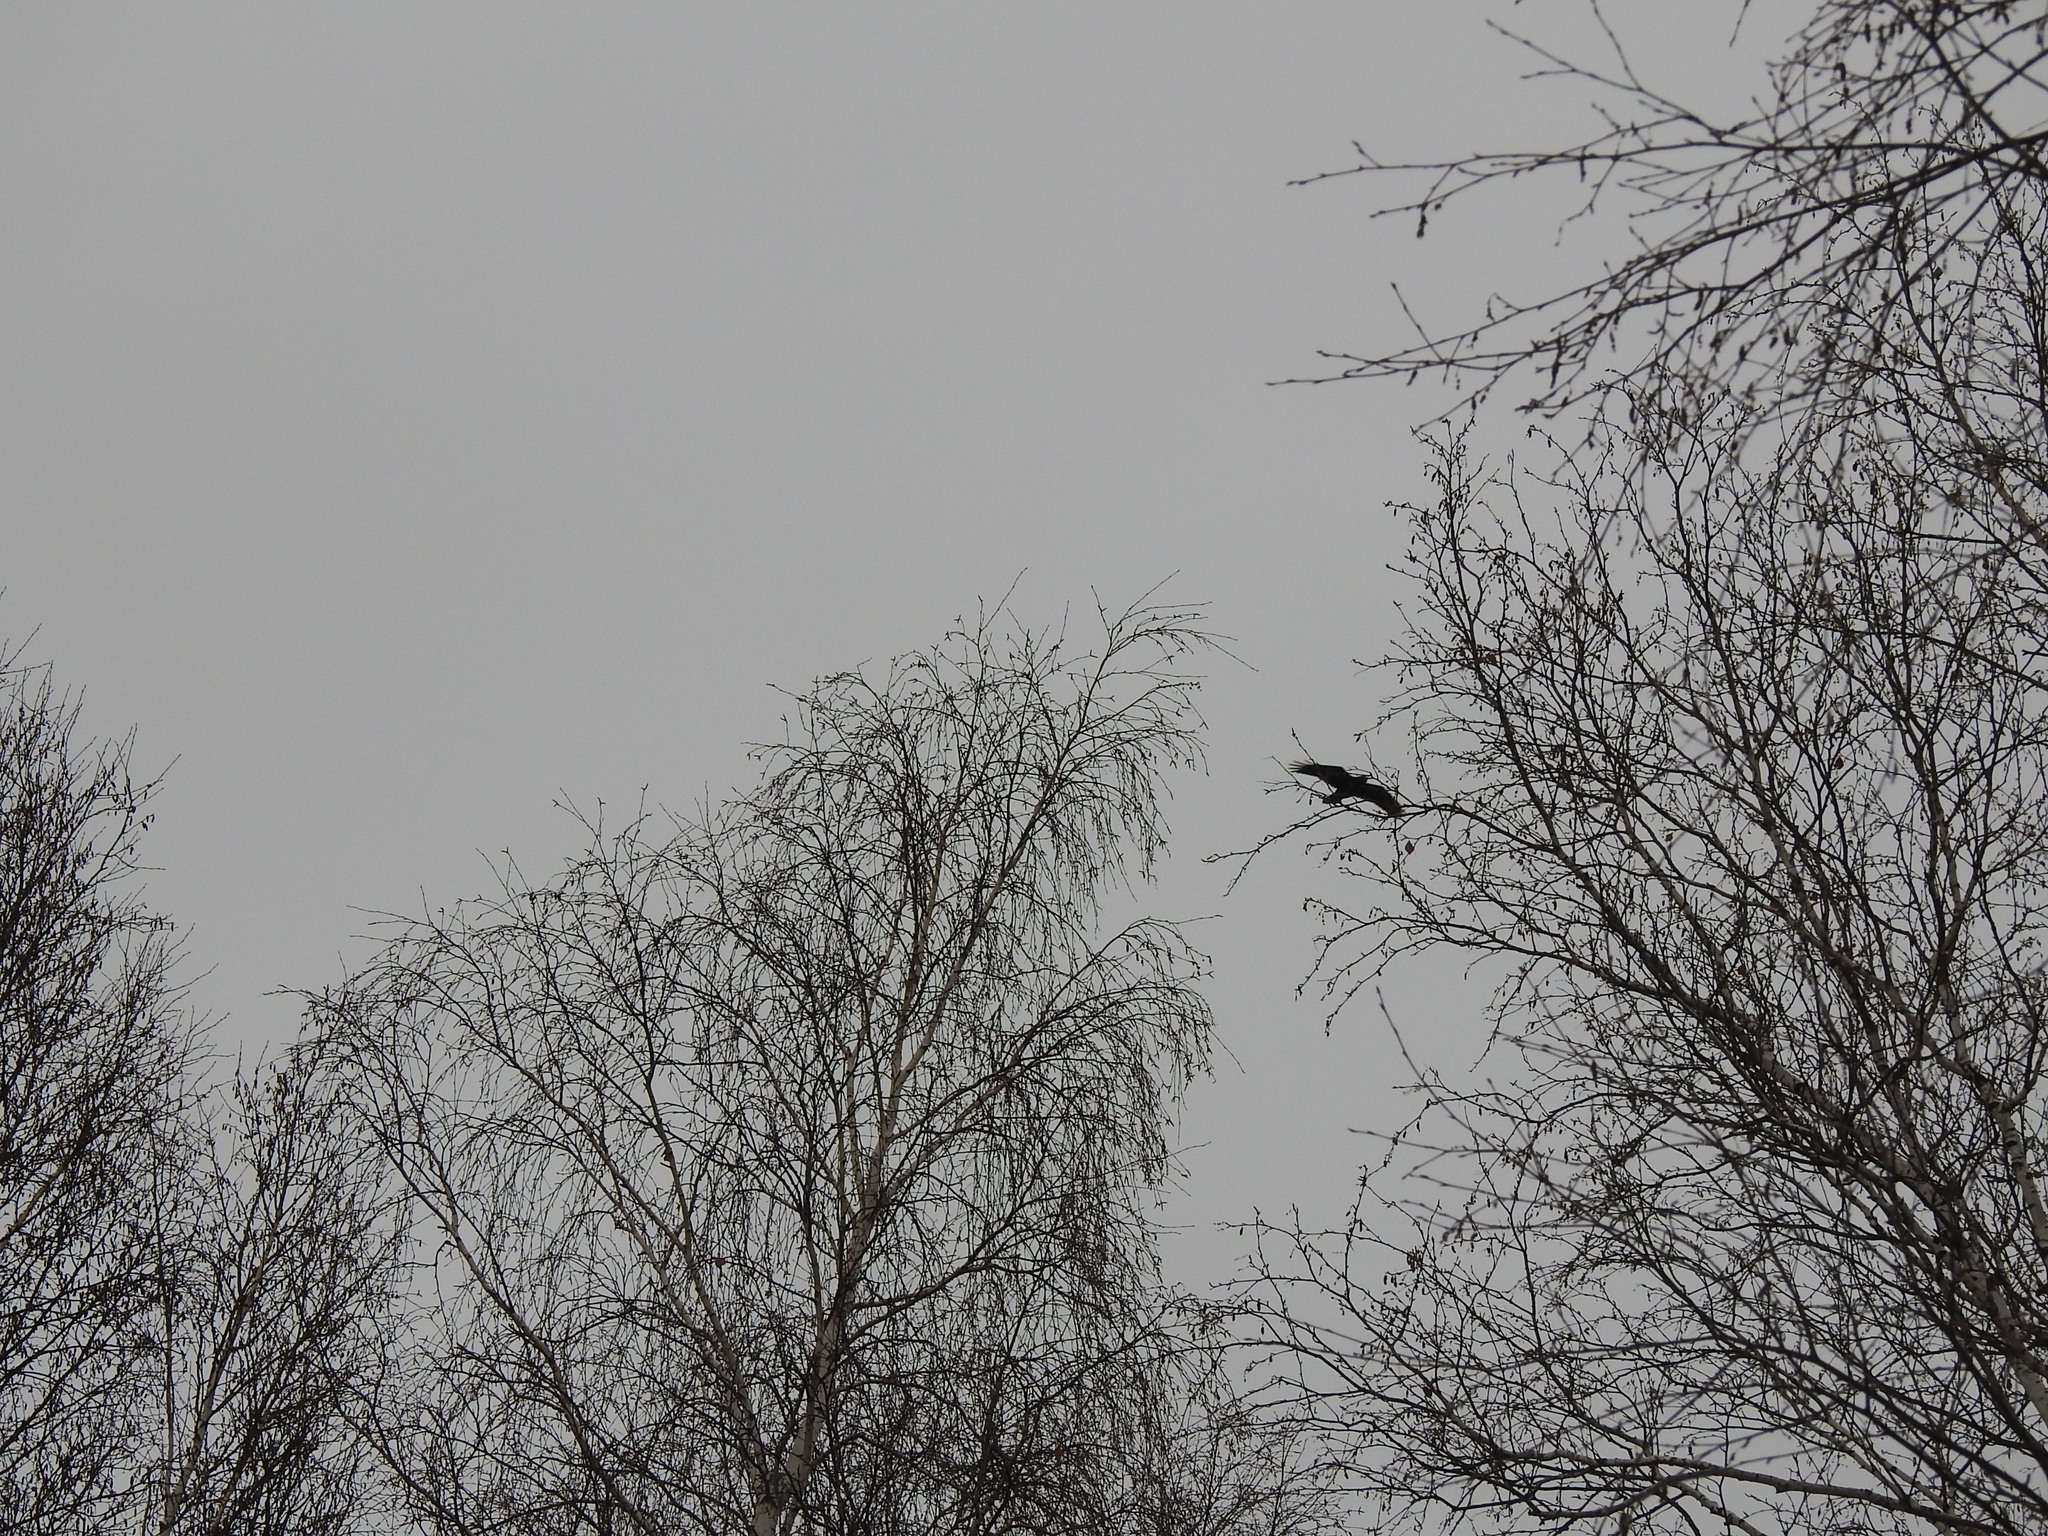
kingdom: Animalia
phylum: Chordata
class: Aves
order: Passeriformes
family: Corvidae
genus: Corvus
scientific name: Corvus corax
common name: Common raven
